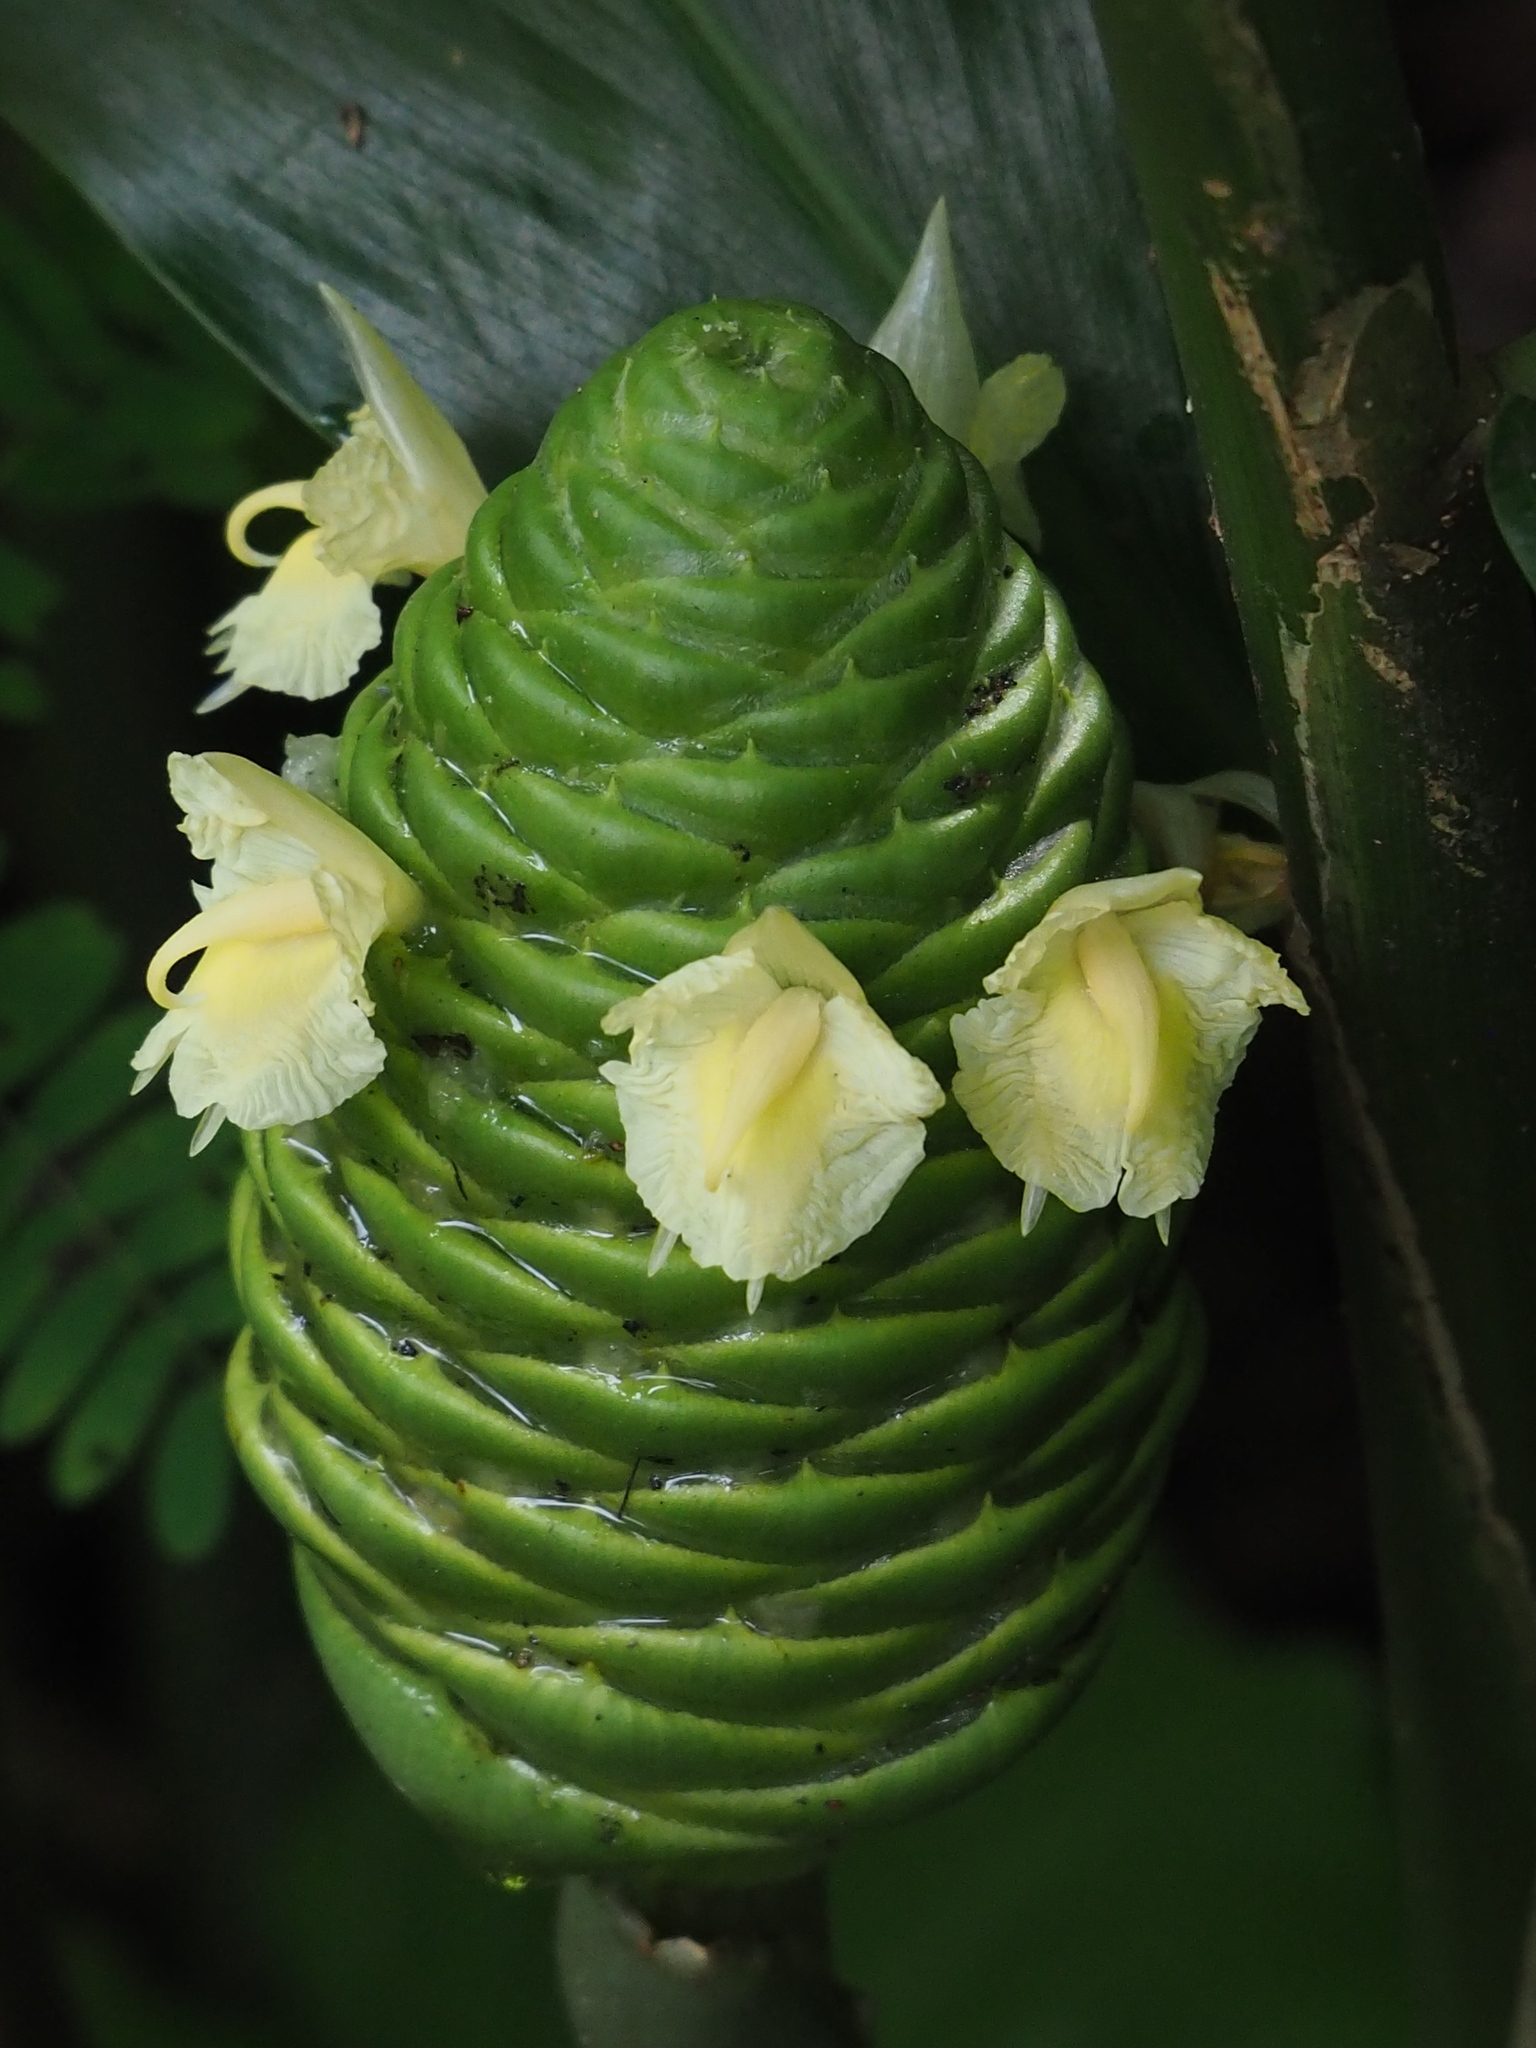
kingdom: Plantae
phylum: Tracheophyta
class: Liliopsida
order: Zingiberales
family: Zingiberaceae
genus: Zingiber
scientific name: Zingiber zerumbet
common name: Bitter ginger
